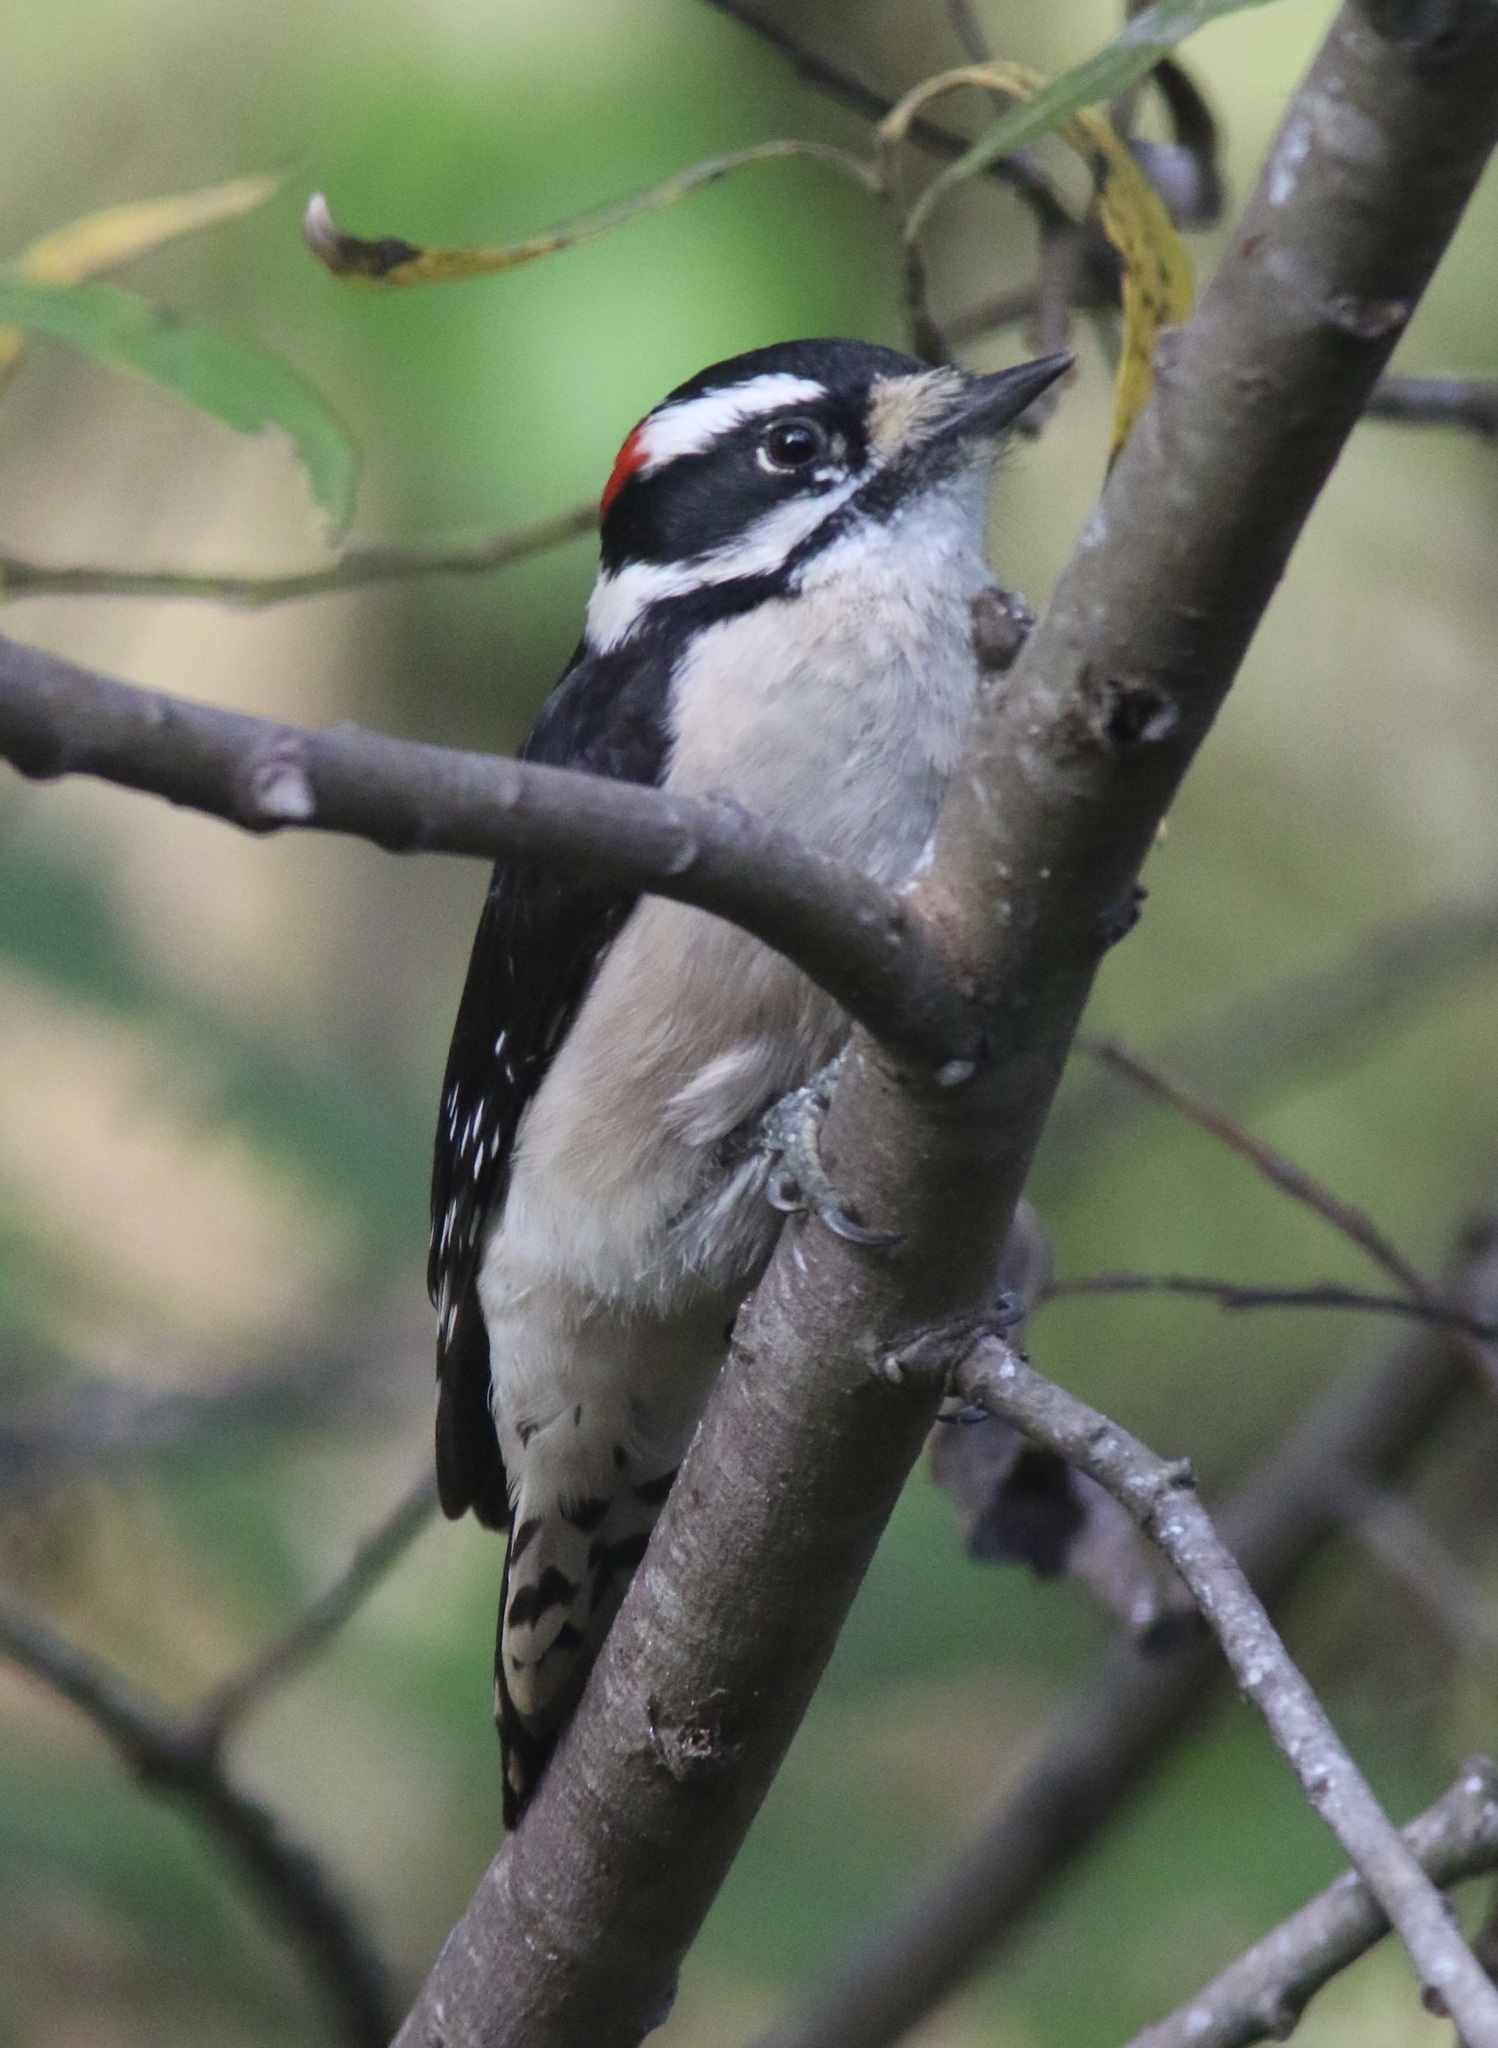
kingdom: Animalia
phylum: Chordata
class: Aves
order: Piciformes
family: Picidae
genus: Dryobates
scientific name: Dryobates pubescens
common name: Downy woodpecker
